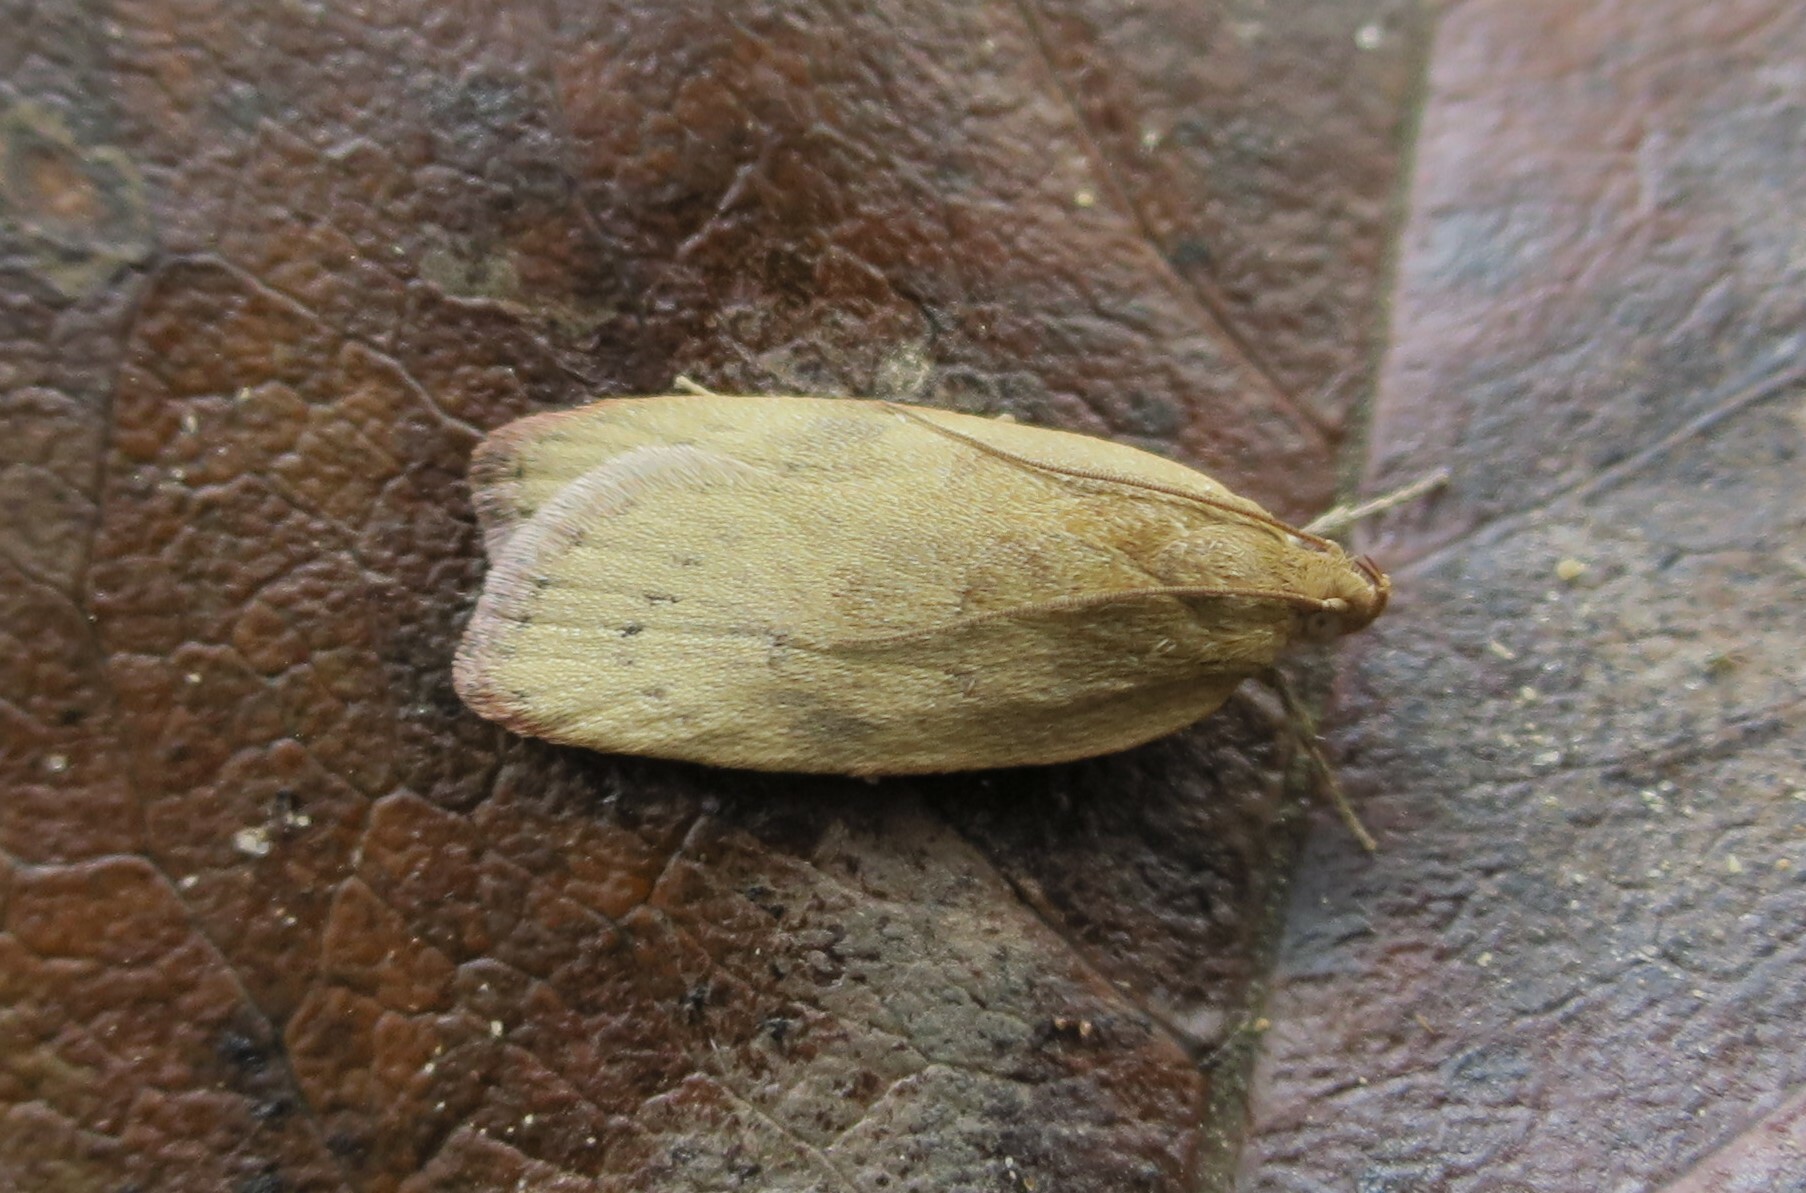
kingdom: Animalia
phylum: Arthropoda
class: Insecta
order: Lepidoptera
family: Depressariidae
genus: Phaeosaces
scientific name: Phaeosaces coarctatella
